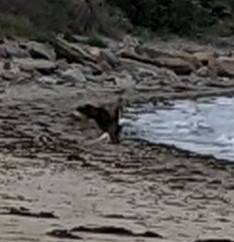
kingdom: Animalia
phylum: Chordata
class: Aves
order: Accipitriformes
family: Accipitridae
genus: Haliaeetus
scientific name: Haliaeetus leucocephalus
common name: Bald eagle
